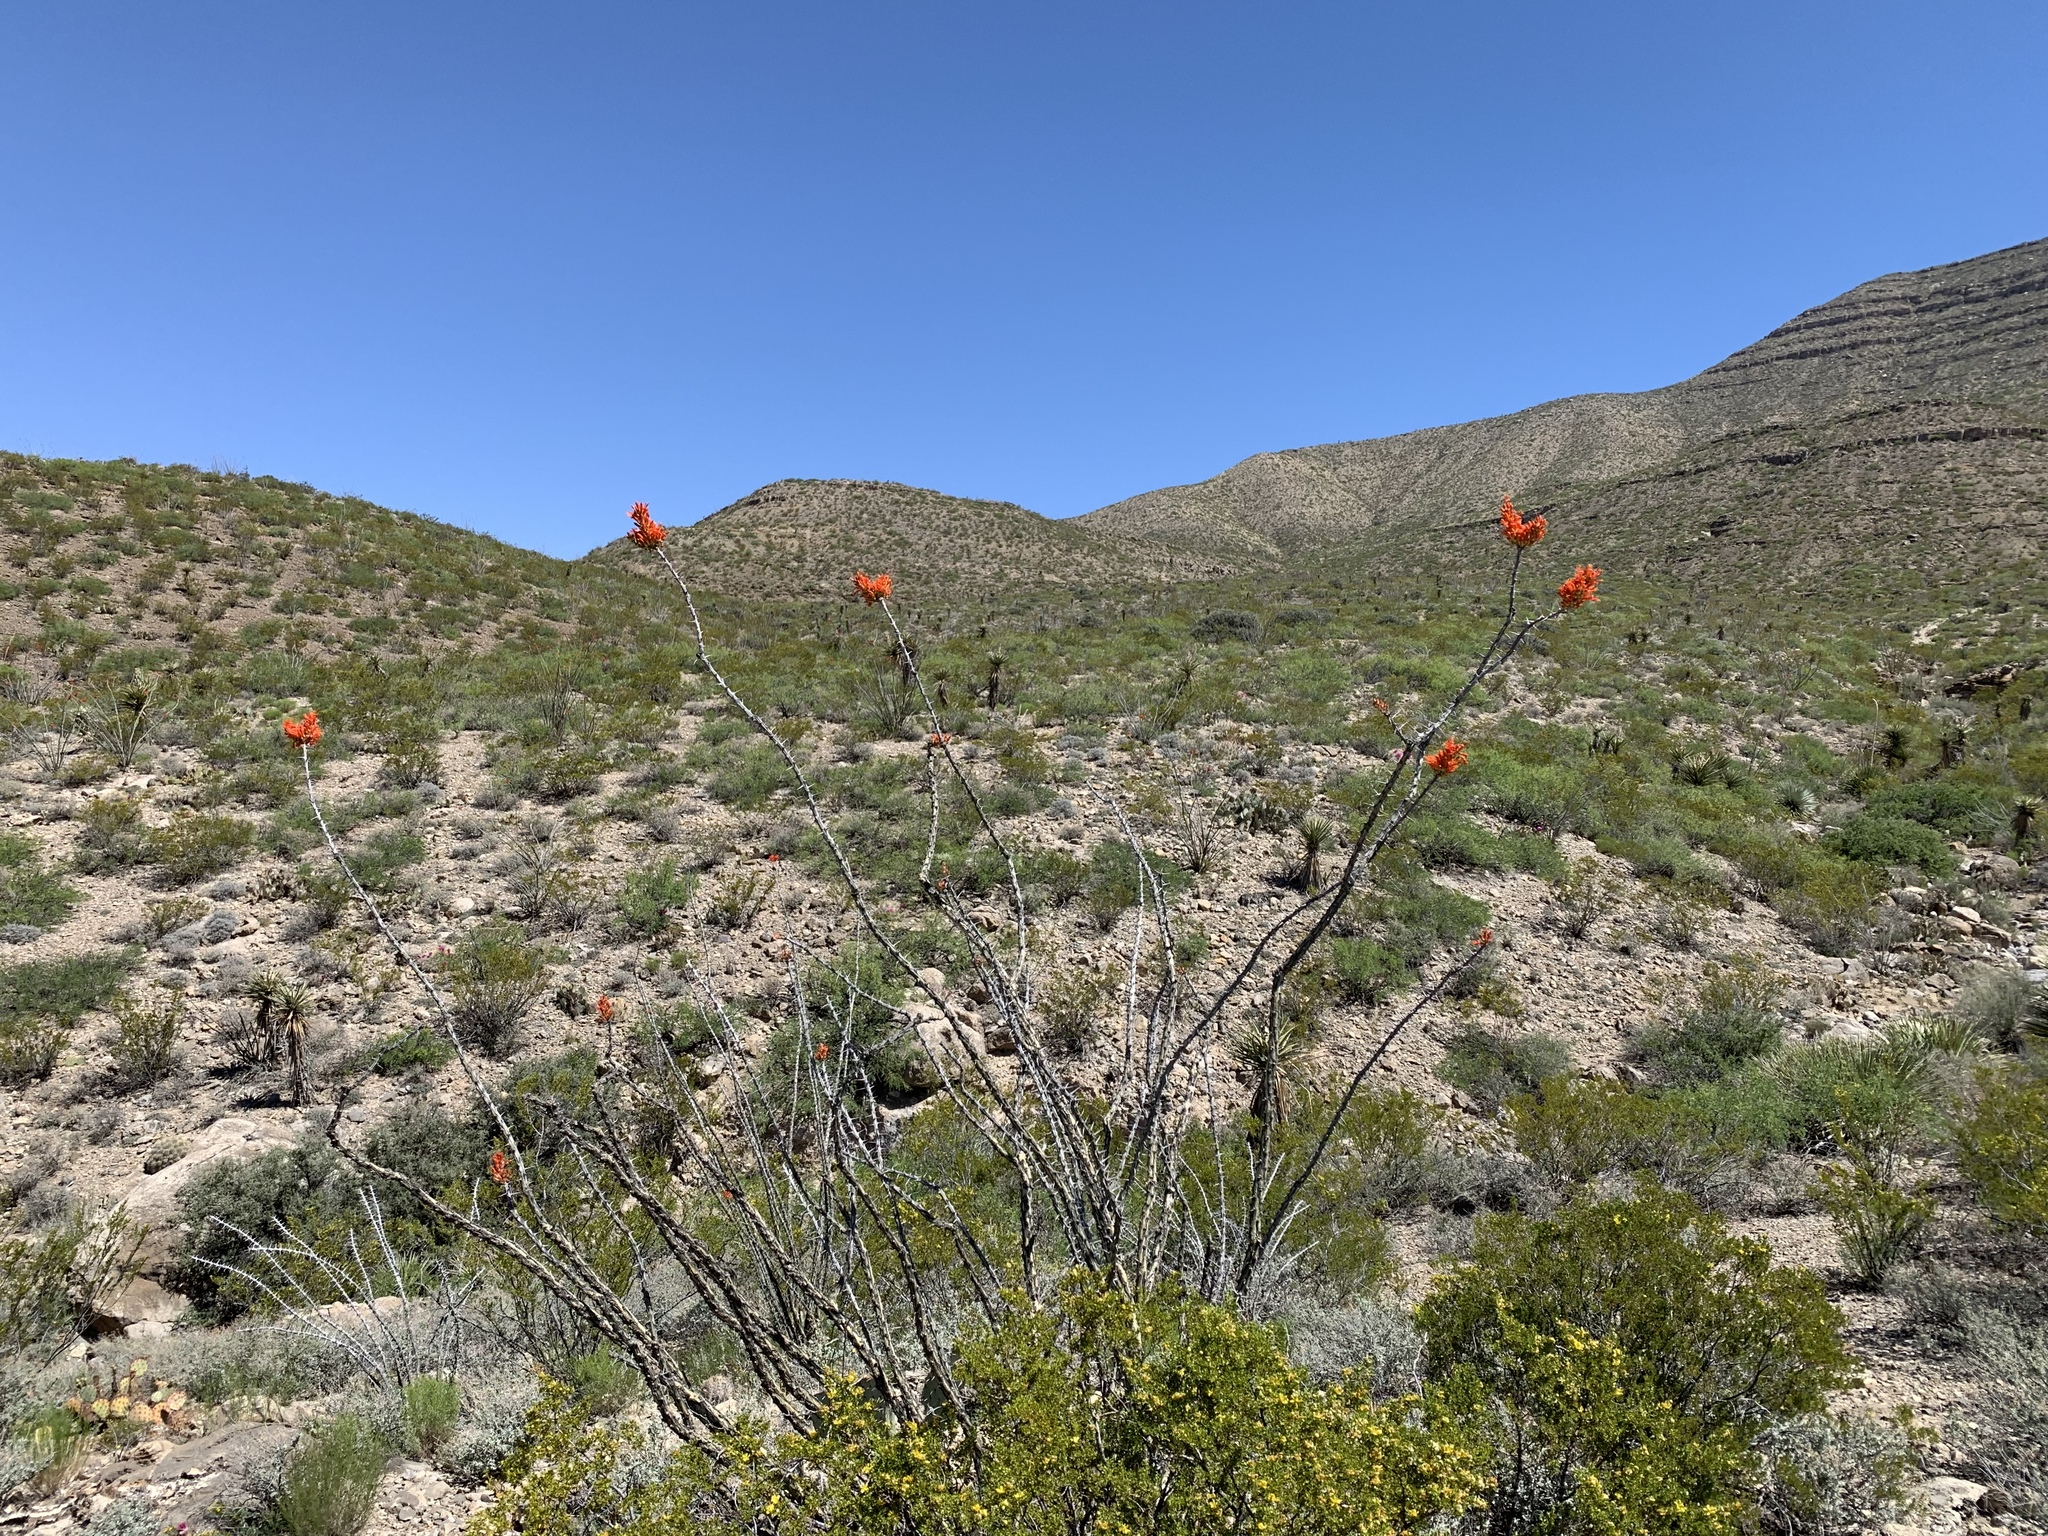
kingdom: Plantae
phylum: Tracheophyta
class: Magnoliopsida
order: Ericales
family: Fouquieriaceae
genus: Fouquieria
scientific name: Fouquieria splendens
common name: Vine-cactus
